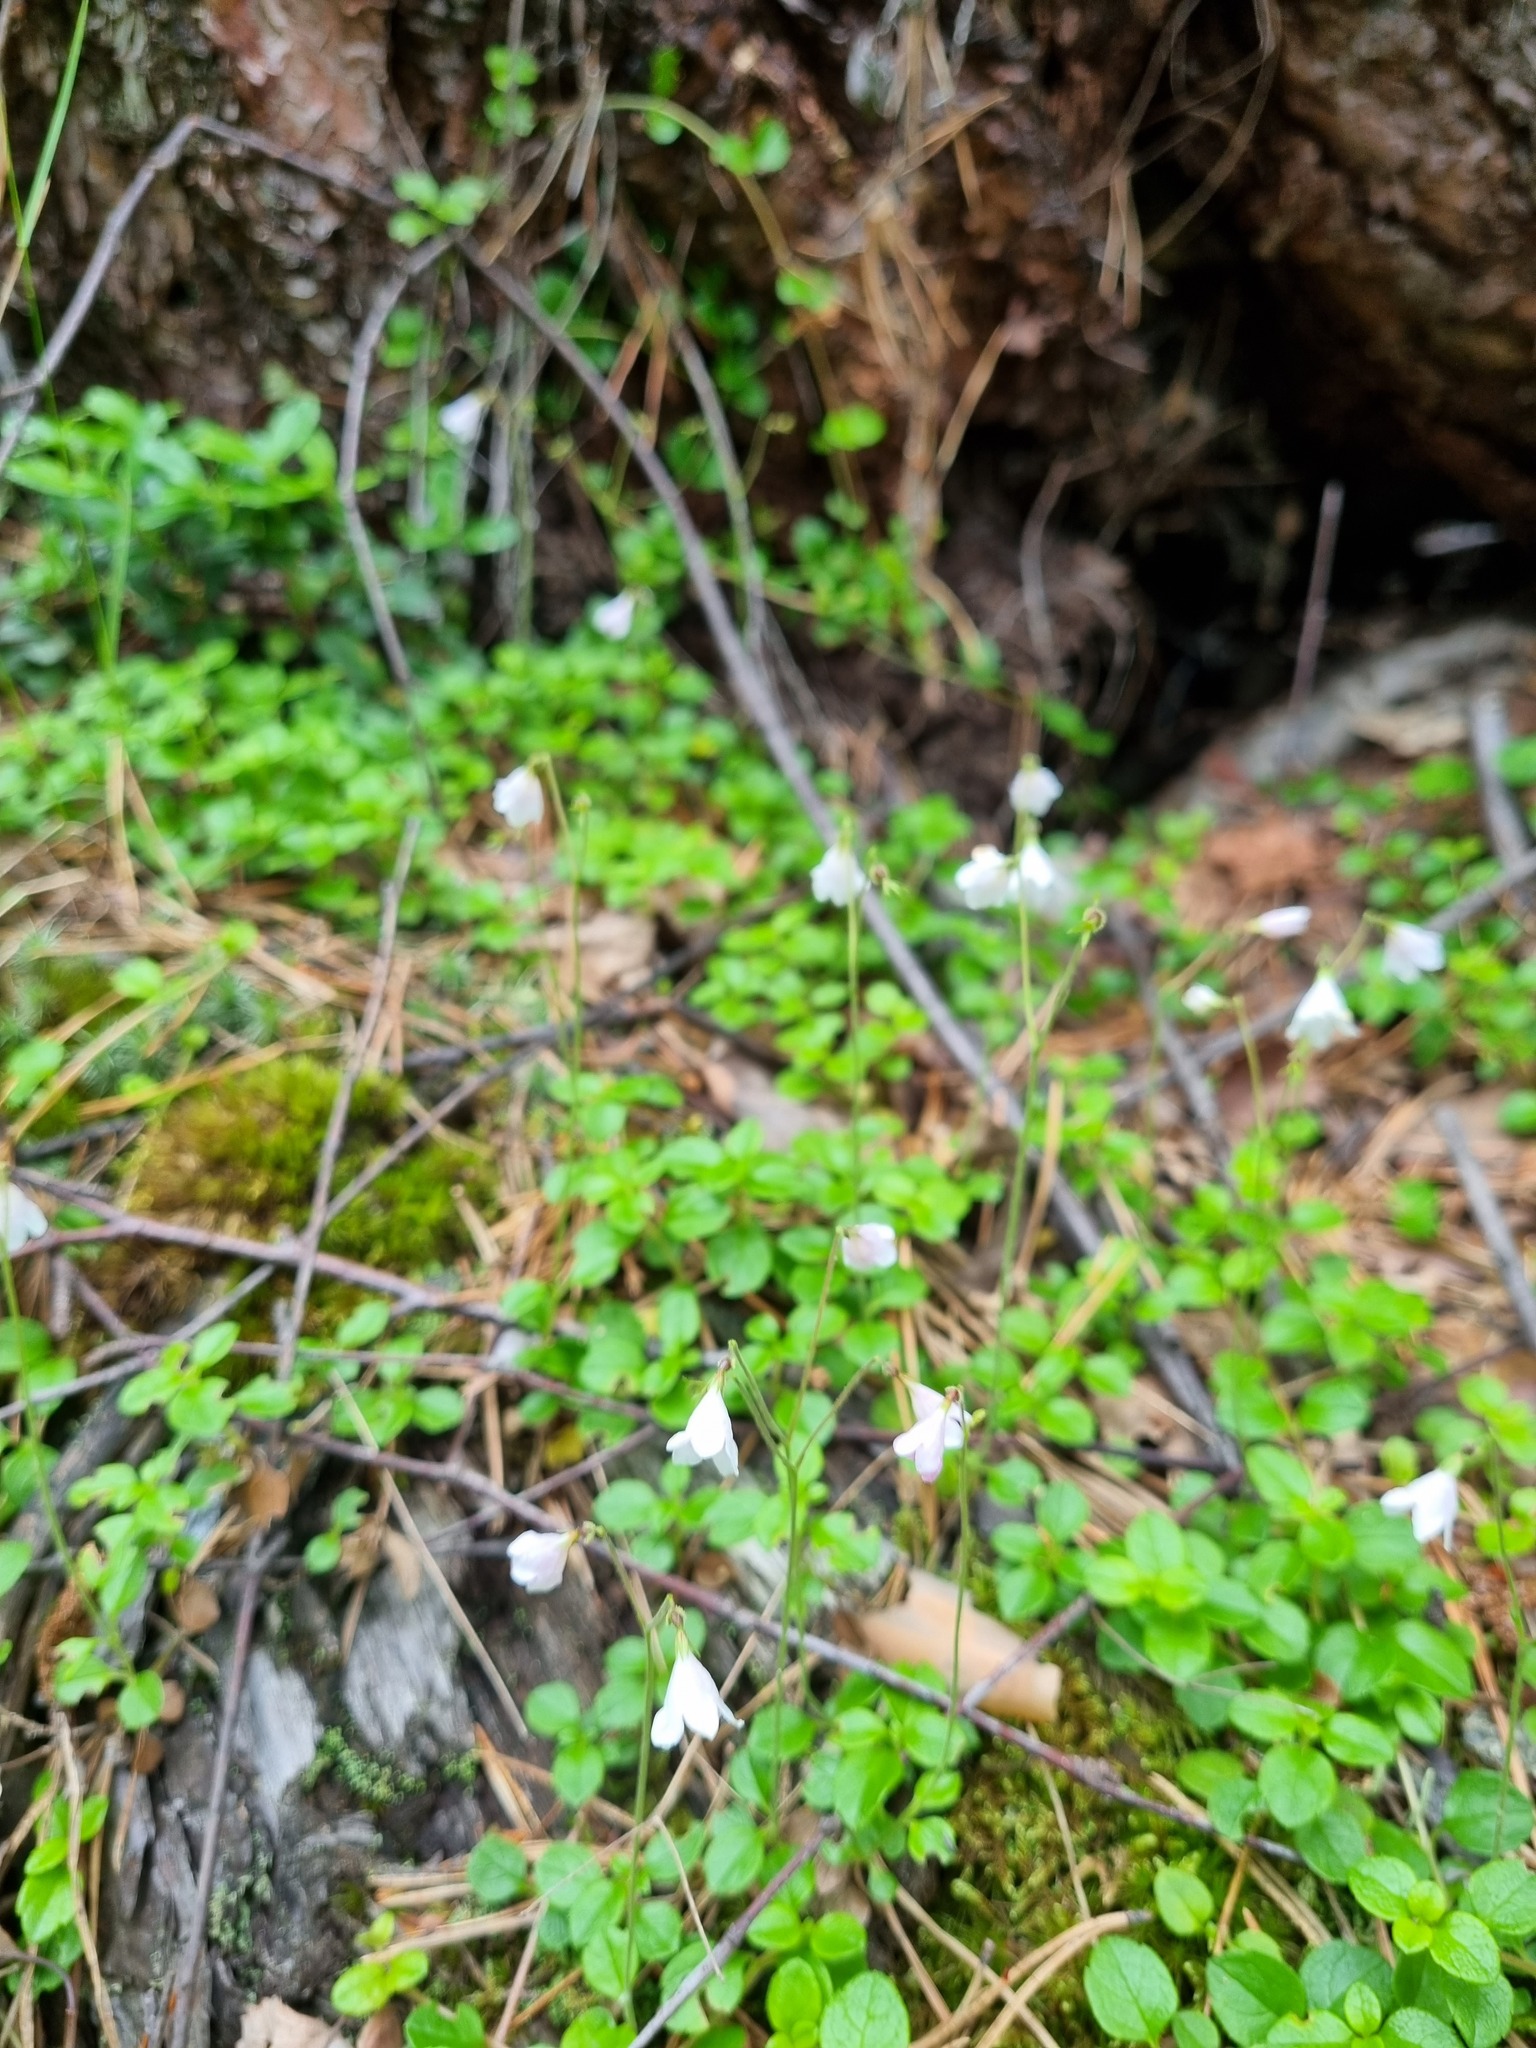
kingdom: Plantae
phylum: Tracheophyta
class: Magnoliopsida
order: Dipsacales
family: Caprifoliaceae
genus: Linnaea
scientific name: Linnaea borealis
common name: Twinflower
